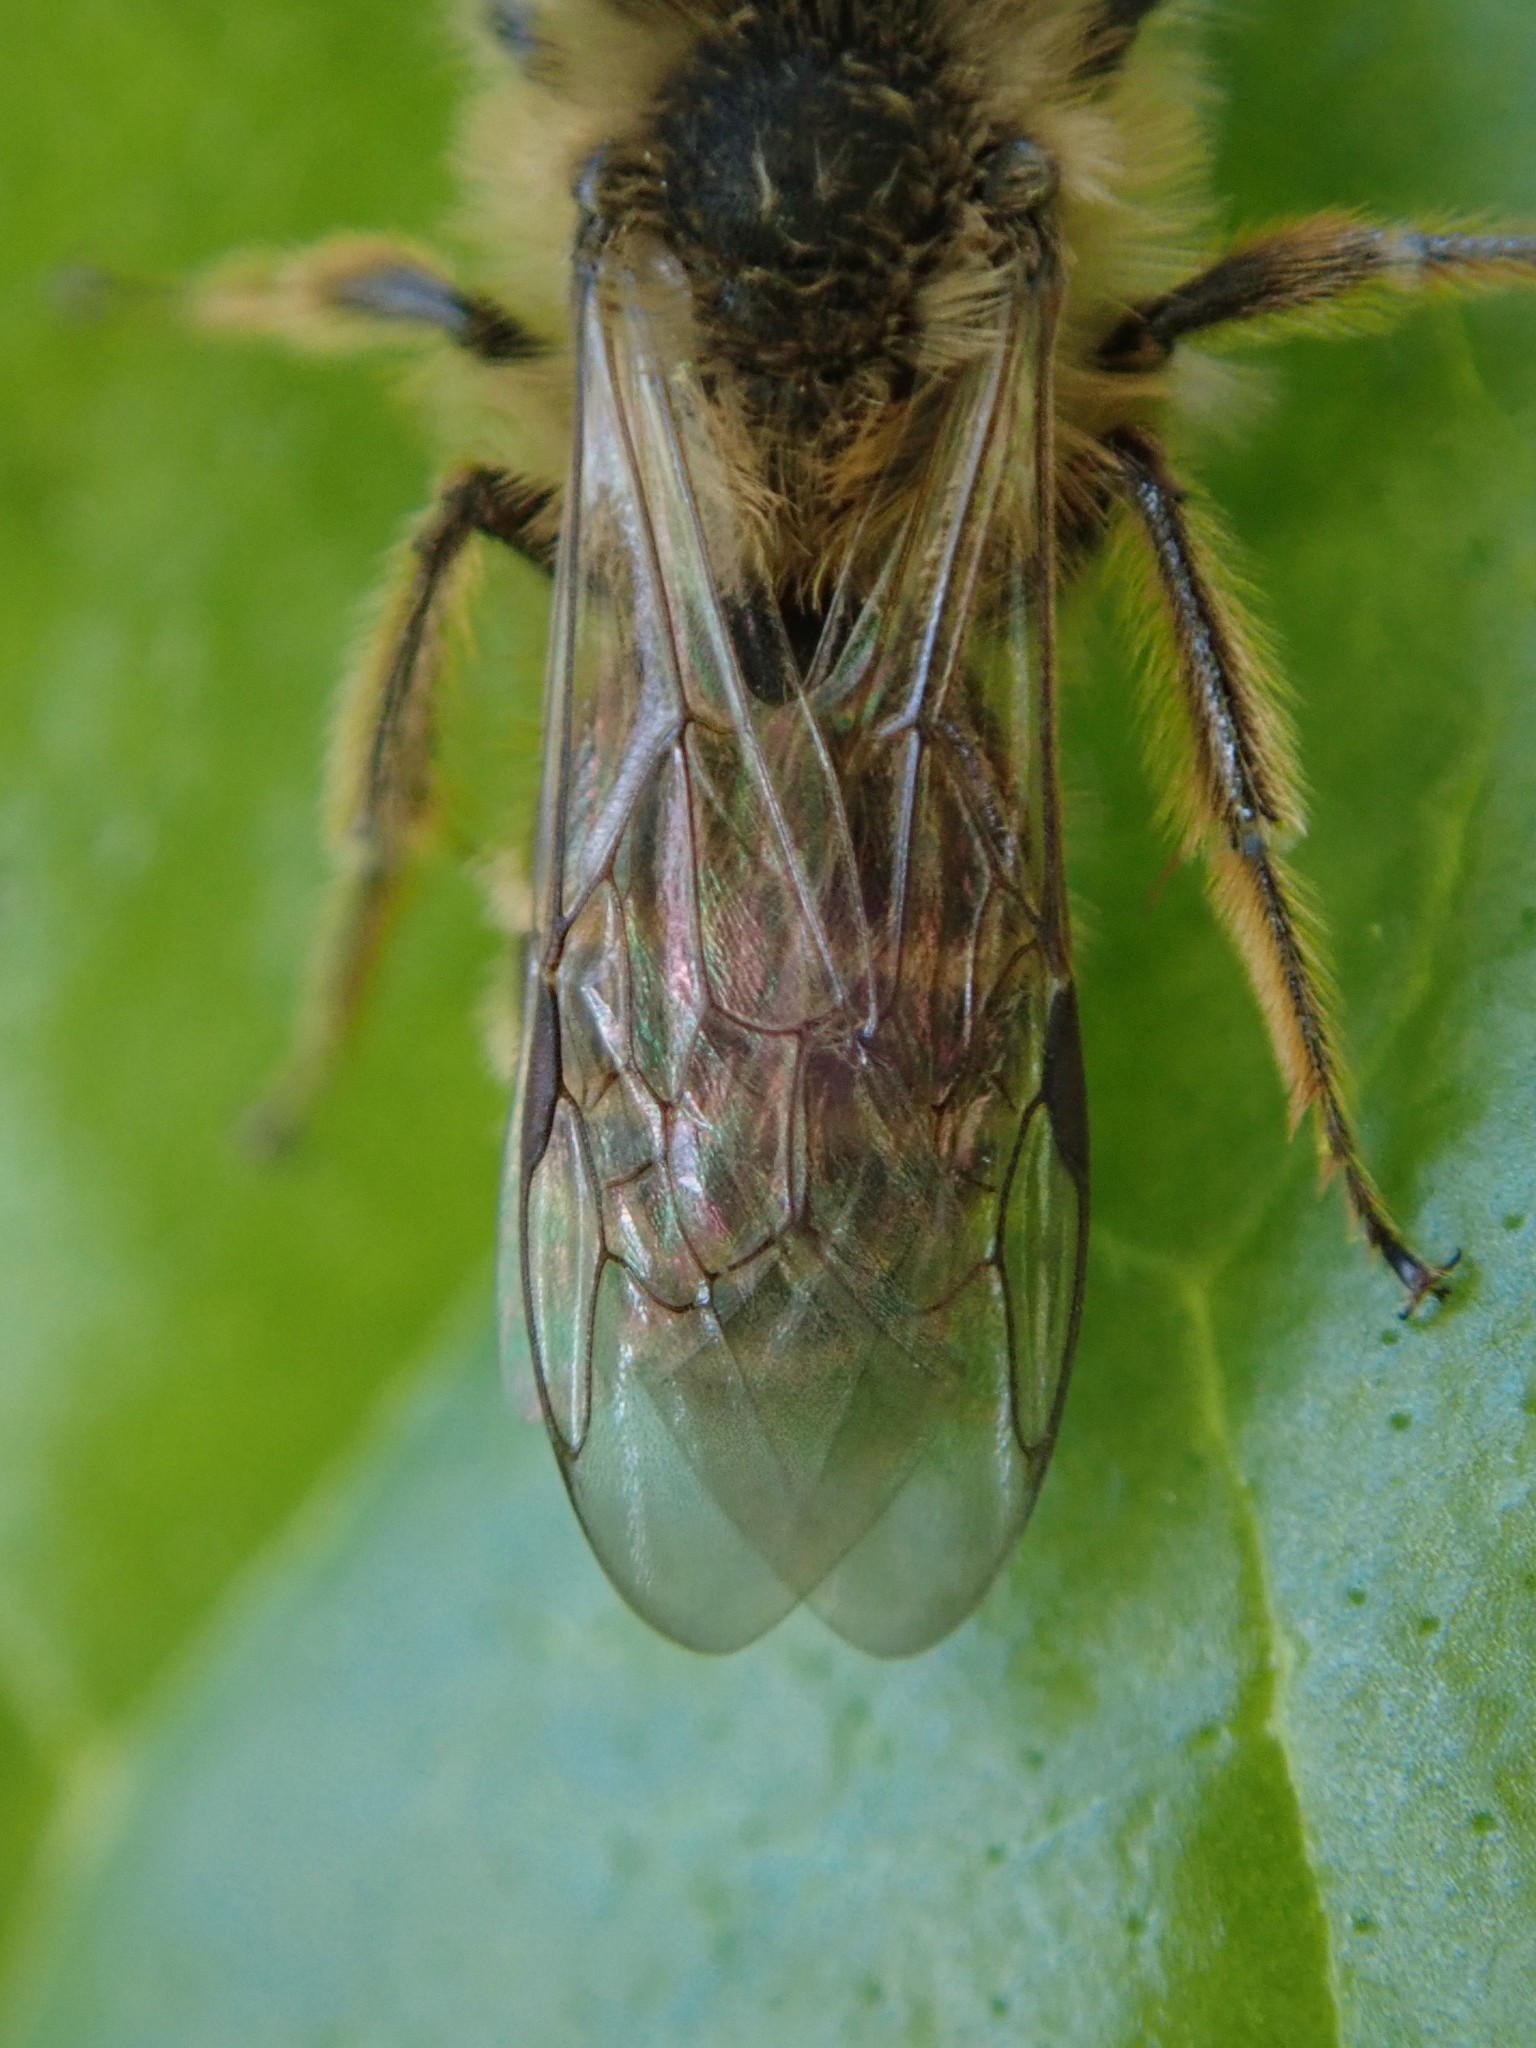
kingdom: Animalia
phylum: Arthropoda
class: Insecta
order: Hymenoptera
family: Andrenidae
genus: Andrena
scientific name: Andrena flavipes
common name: Yellow-legged mining bee
